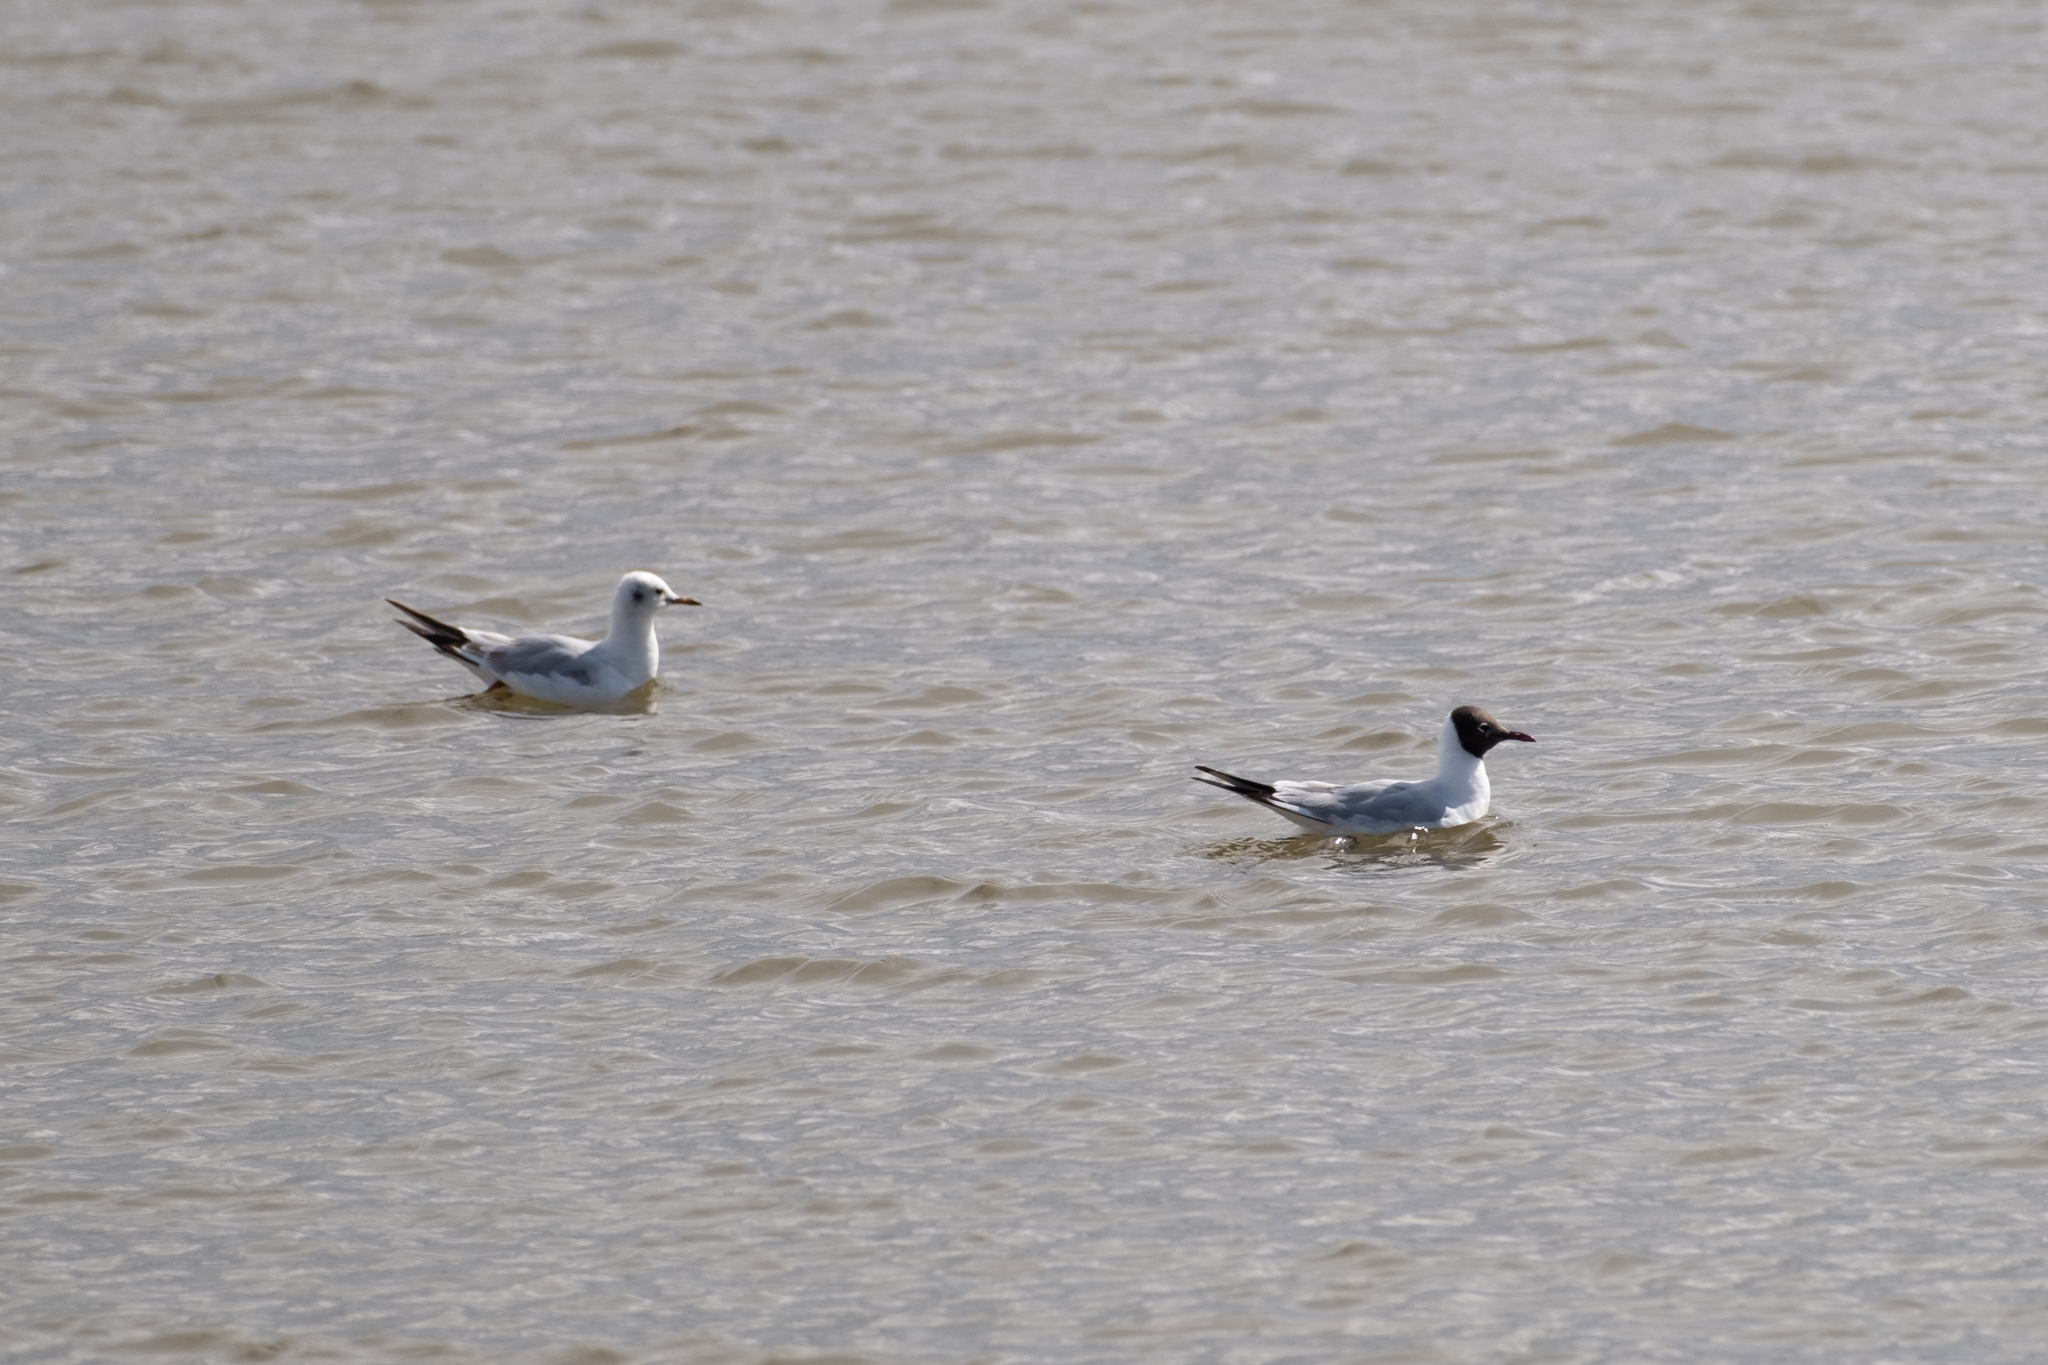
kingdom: Animalia
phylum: Chordata
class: Aves
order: Charadriiformes
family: Laridae
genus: Chroicocephalus
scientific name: Chroicocephalus ridibundus
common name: Black-headed gull
